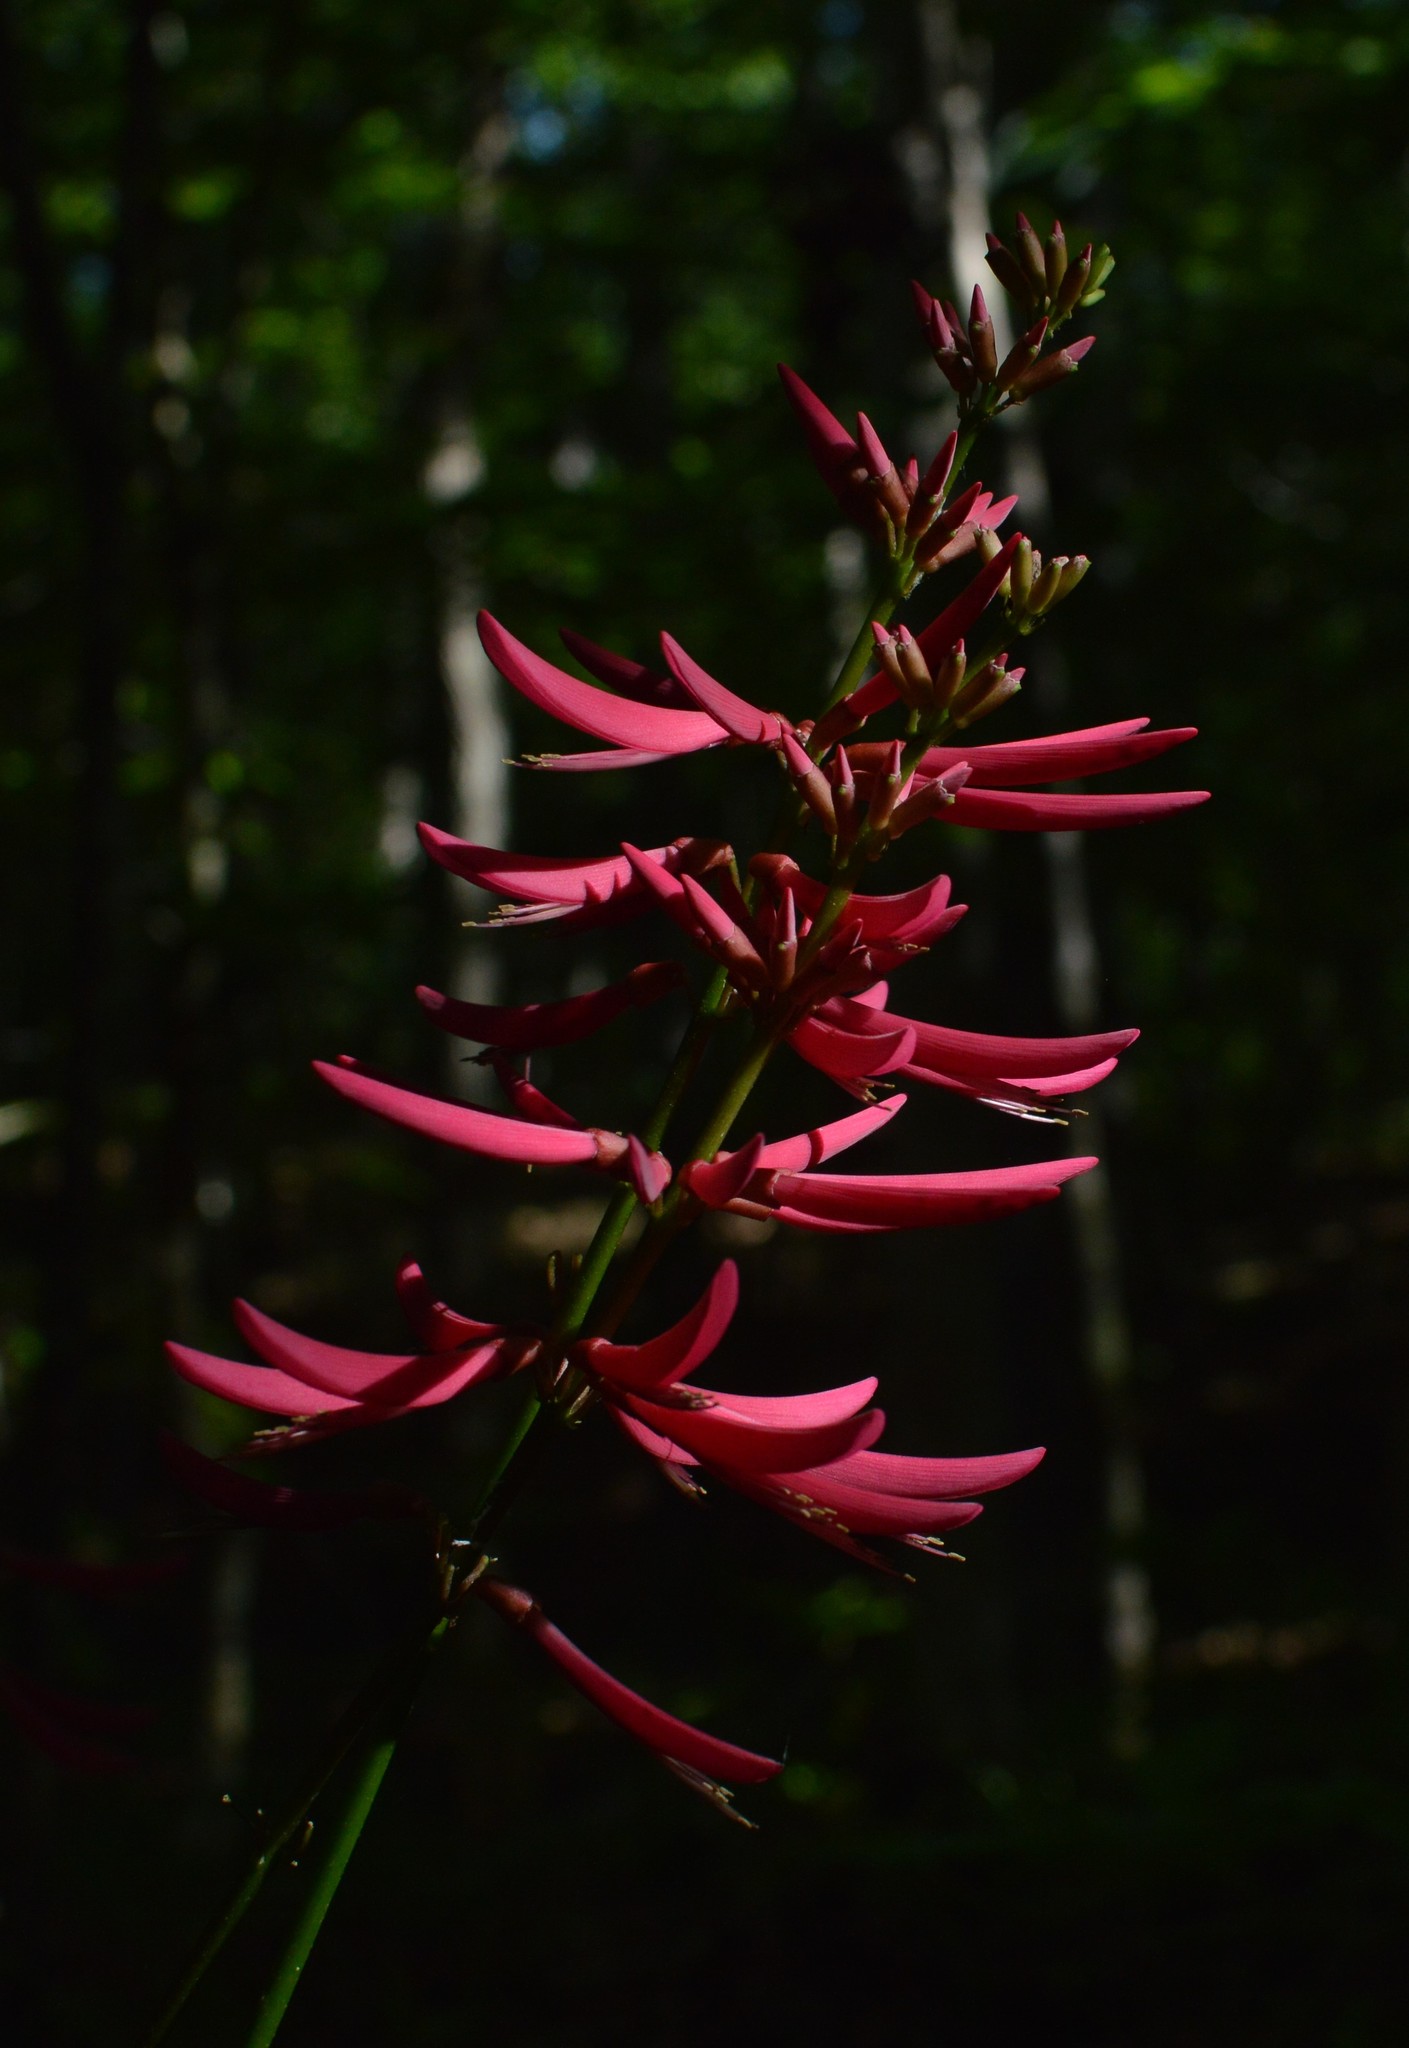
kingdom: Plantae
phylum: Tracheophyta
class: Magnoliopsida
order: Fabales
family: Fabaceae
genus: Erythrina
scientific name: Erythrina herbacea
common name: Coral-bean
